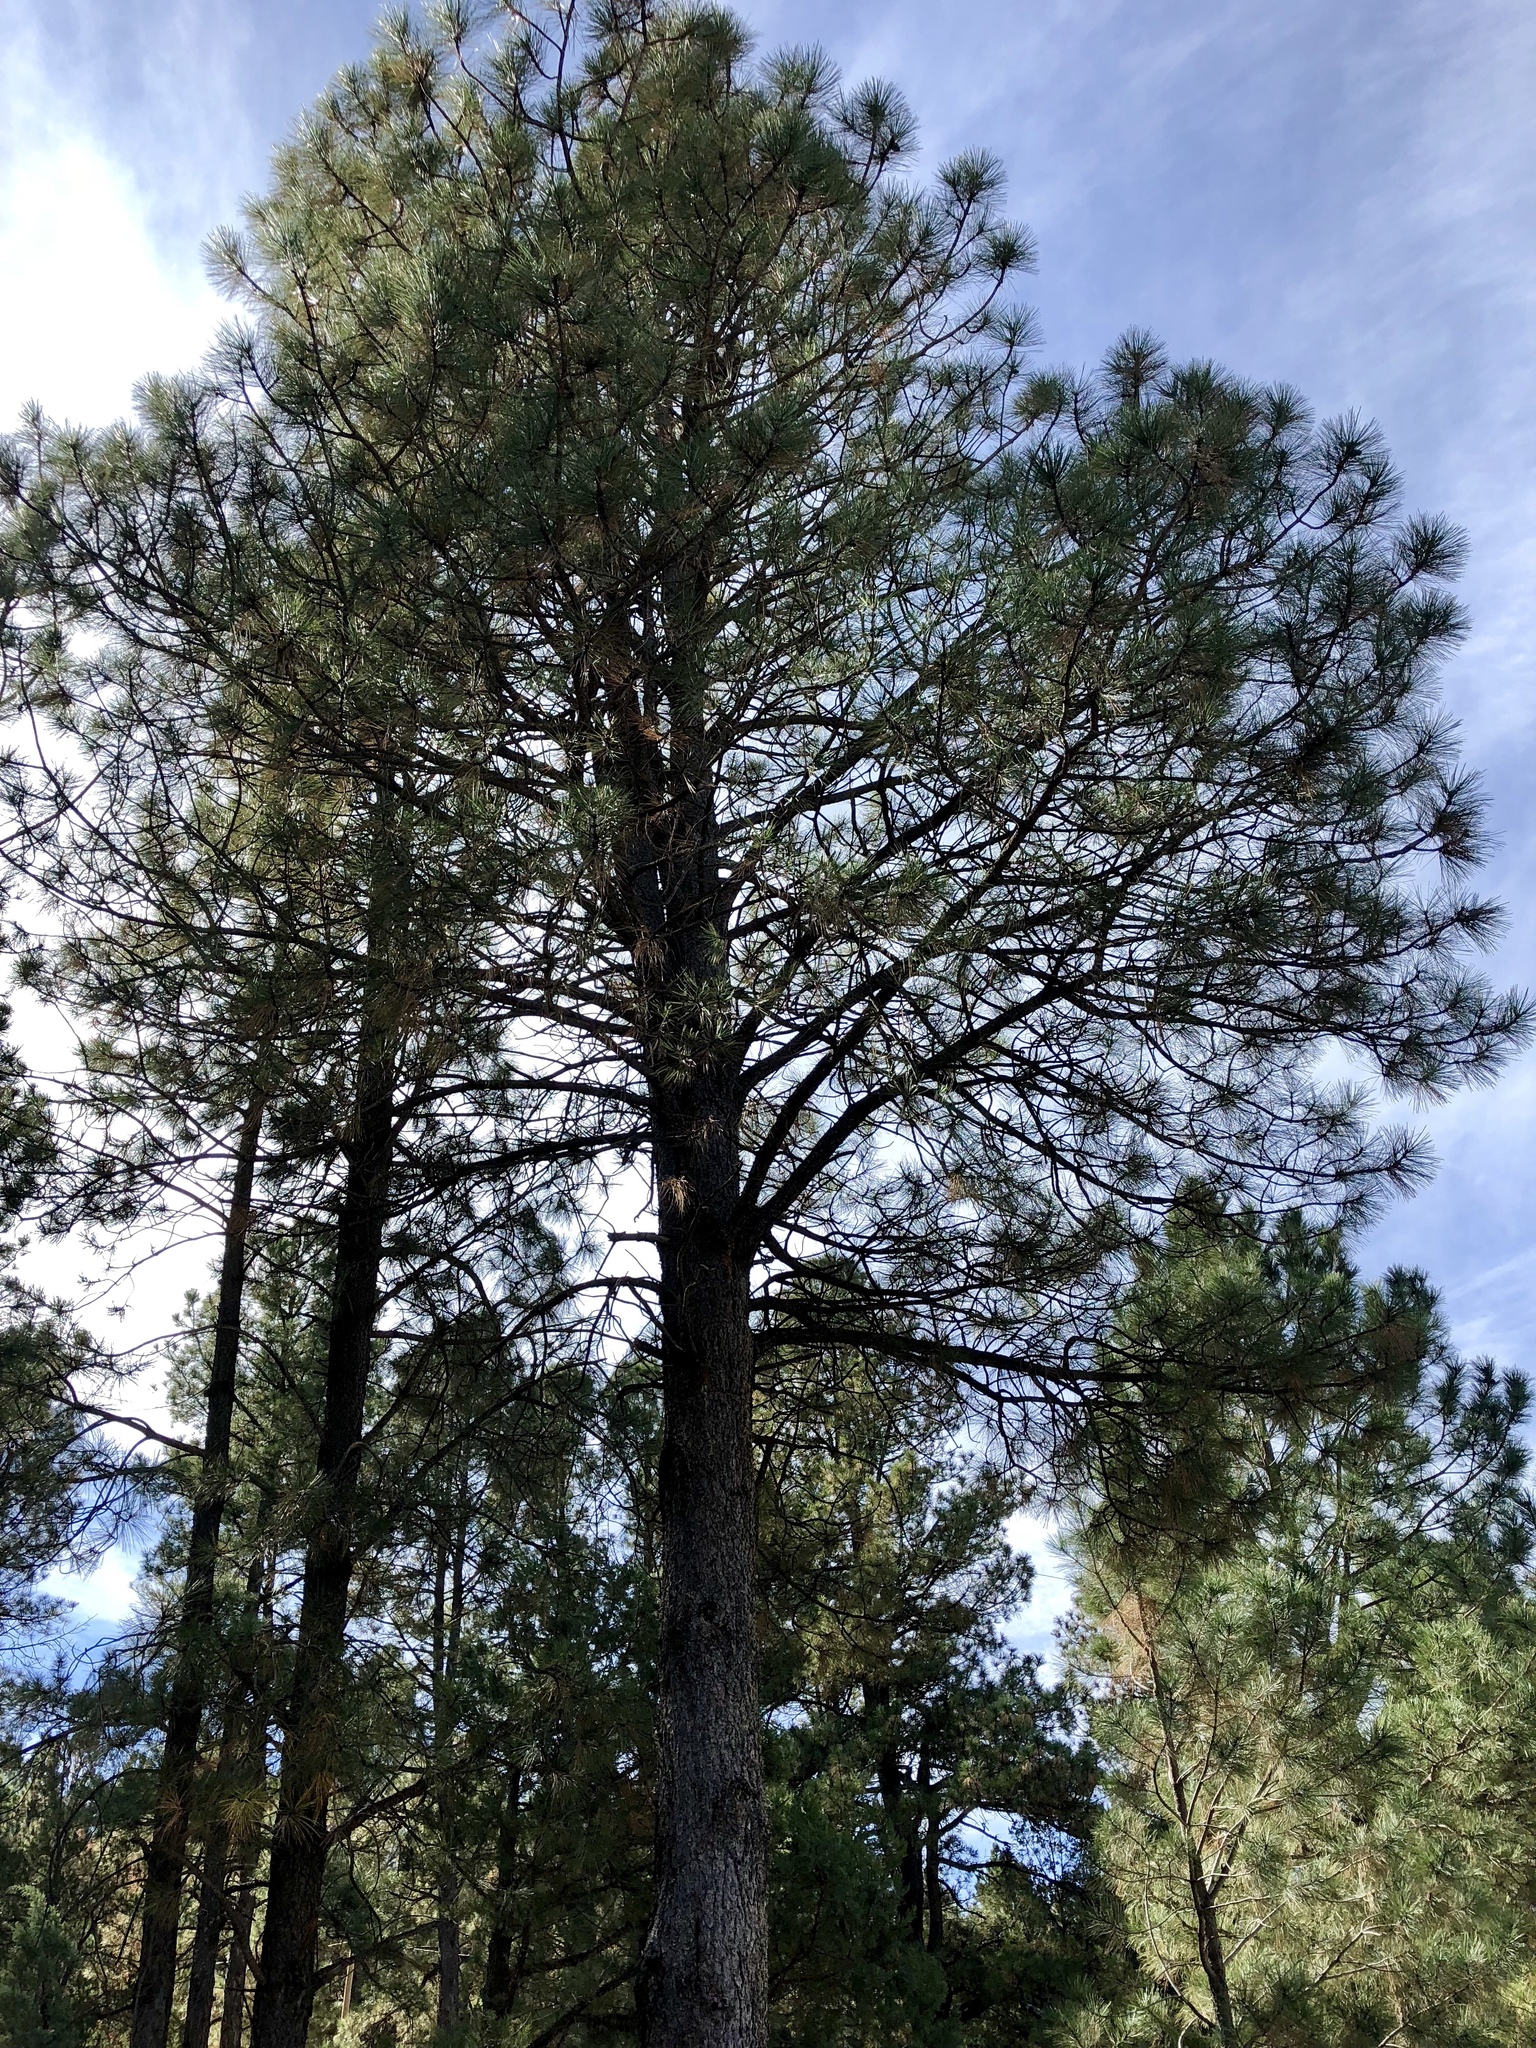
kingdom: Plantae
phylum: Tracheophyta
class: Pinopsida
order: Pinales
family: Pinaceae
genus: Pinus
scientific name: Pinus ponderosa
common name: Western yellow-pine
